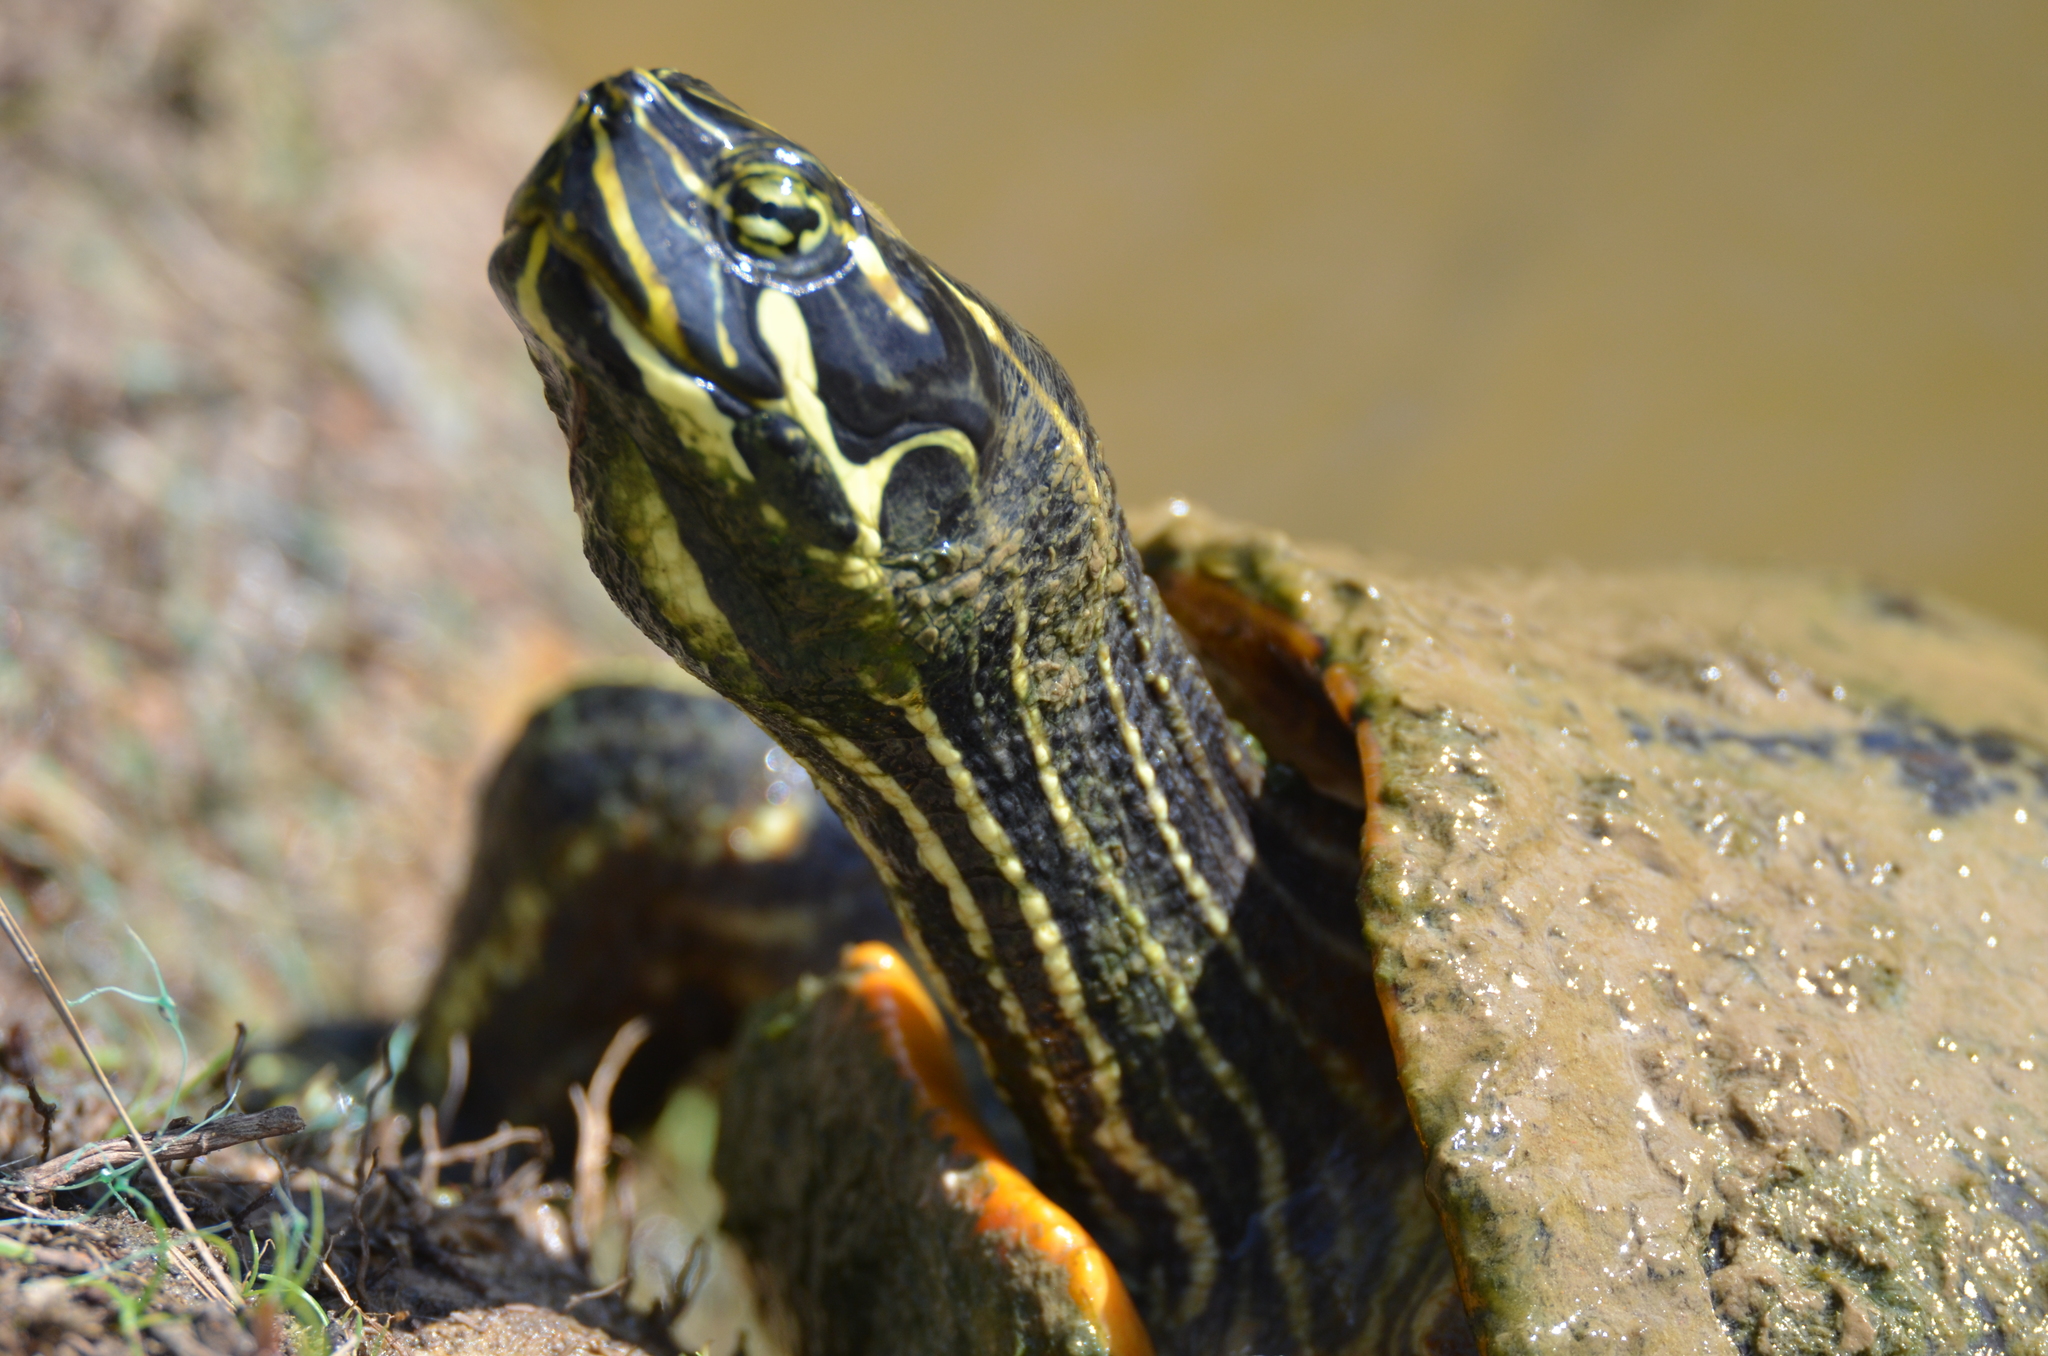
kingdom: Animalia
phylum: Chordata
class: Testudines
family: Emydidae
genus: Pseudemys
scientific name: Pseudemys concinna
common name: Eastern river cooter
